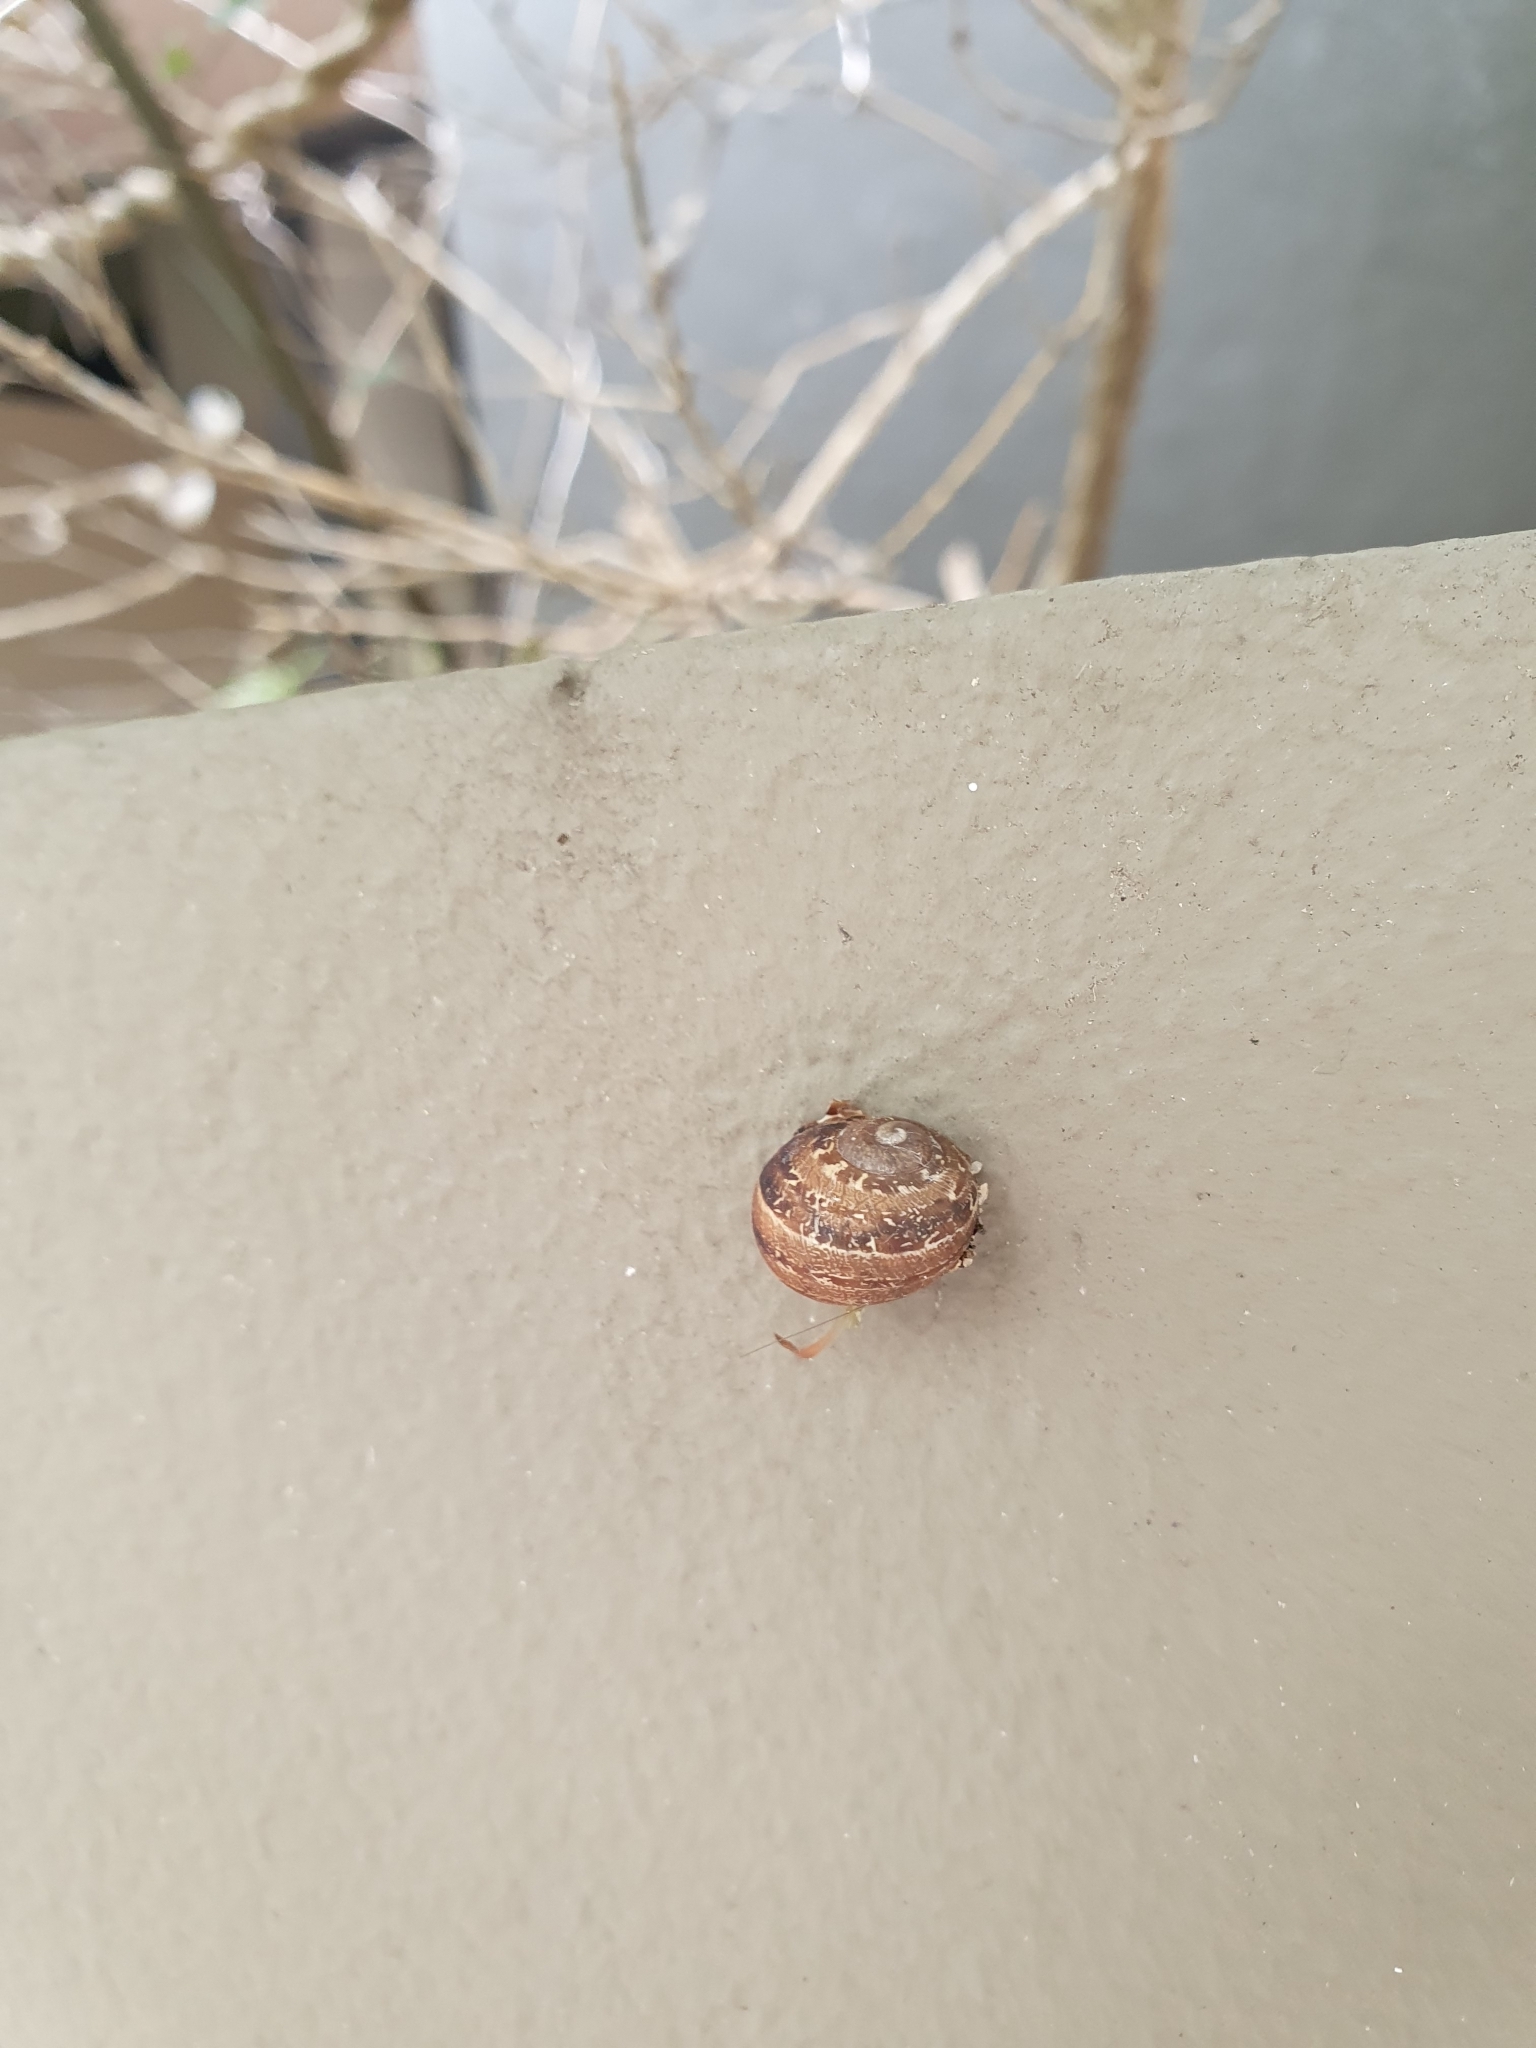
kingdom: Animalia
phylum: Mollusca
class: Gastropoda
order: Stylommatophora
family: Helicidae
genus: Cornu
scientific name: Cornu aspersum
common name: Brown garden snail
